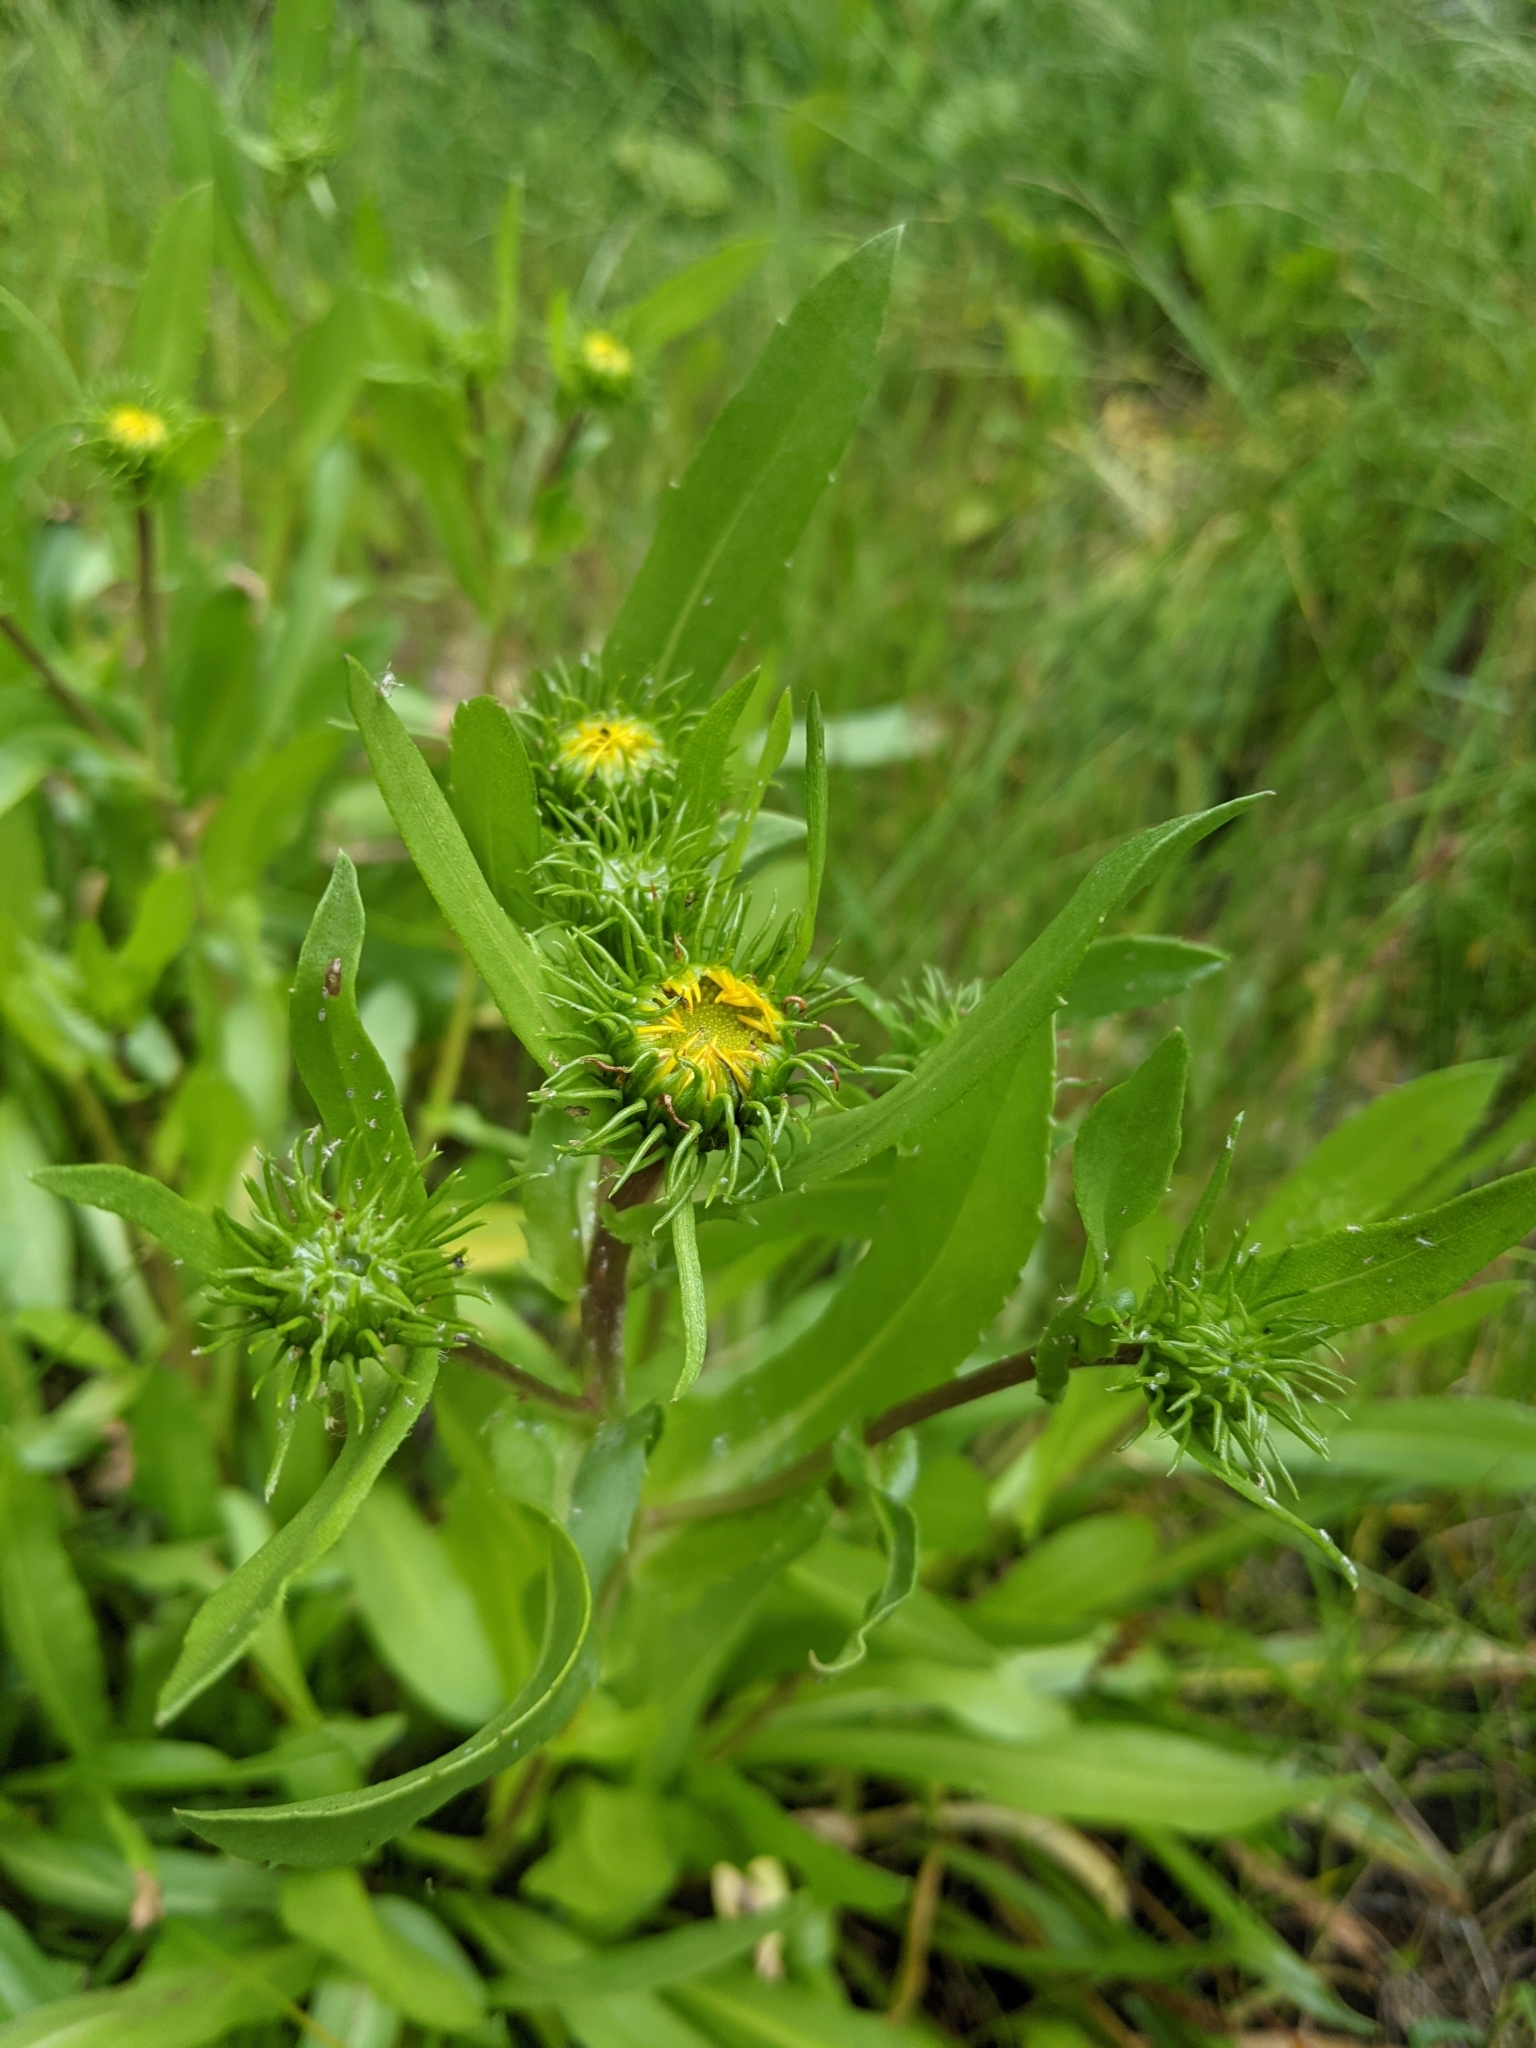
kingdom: Plantae
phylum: Tracheophyta
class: Magnoliopsida
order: Asterales
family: Asteraceae
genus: Grindelia
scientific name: Grindelia hirsutula
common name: Hairy gumweed
